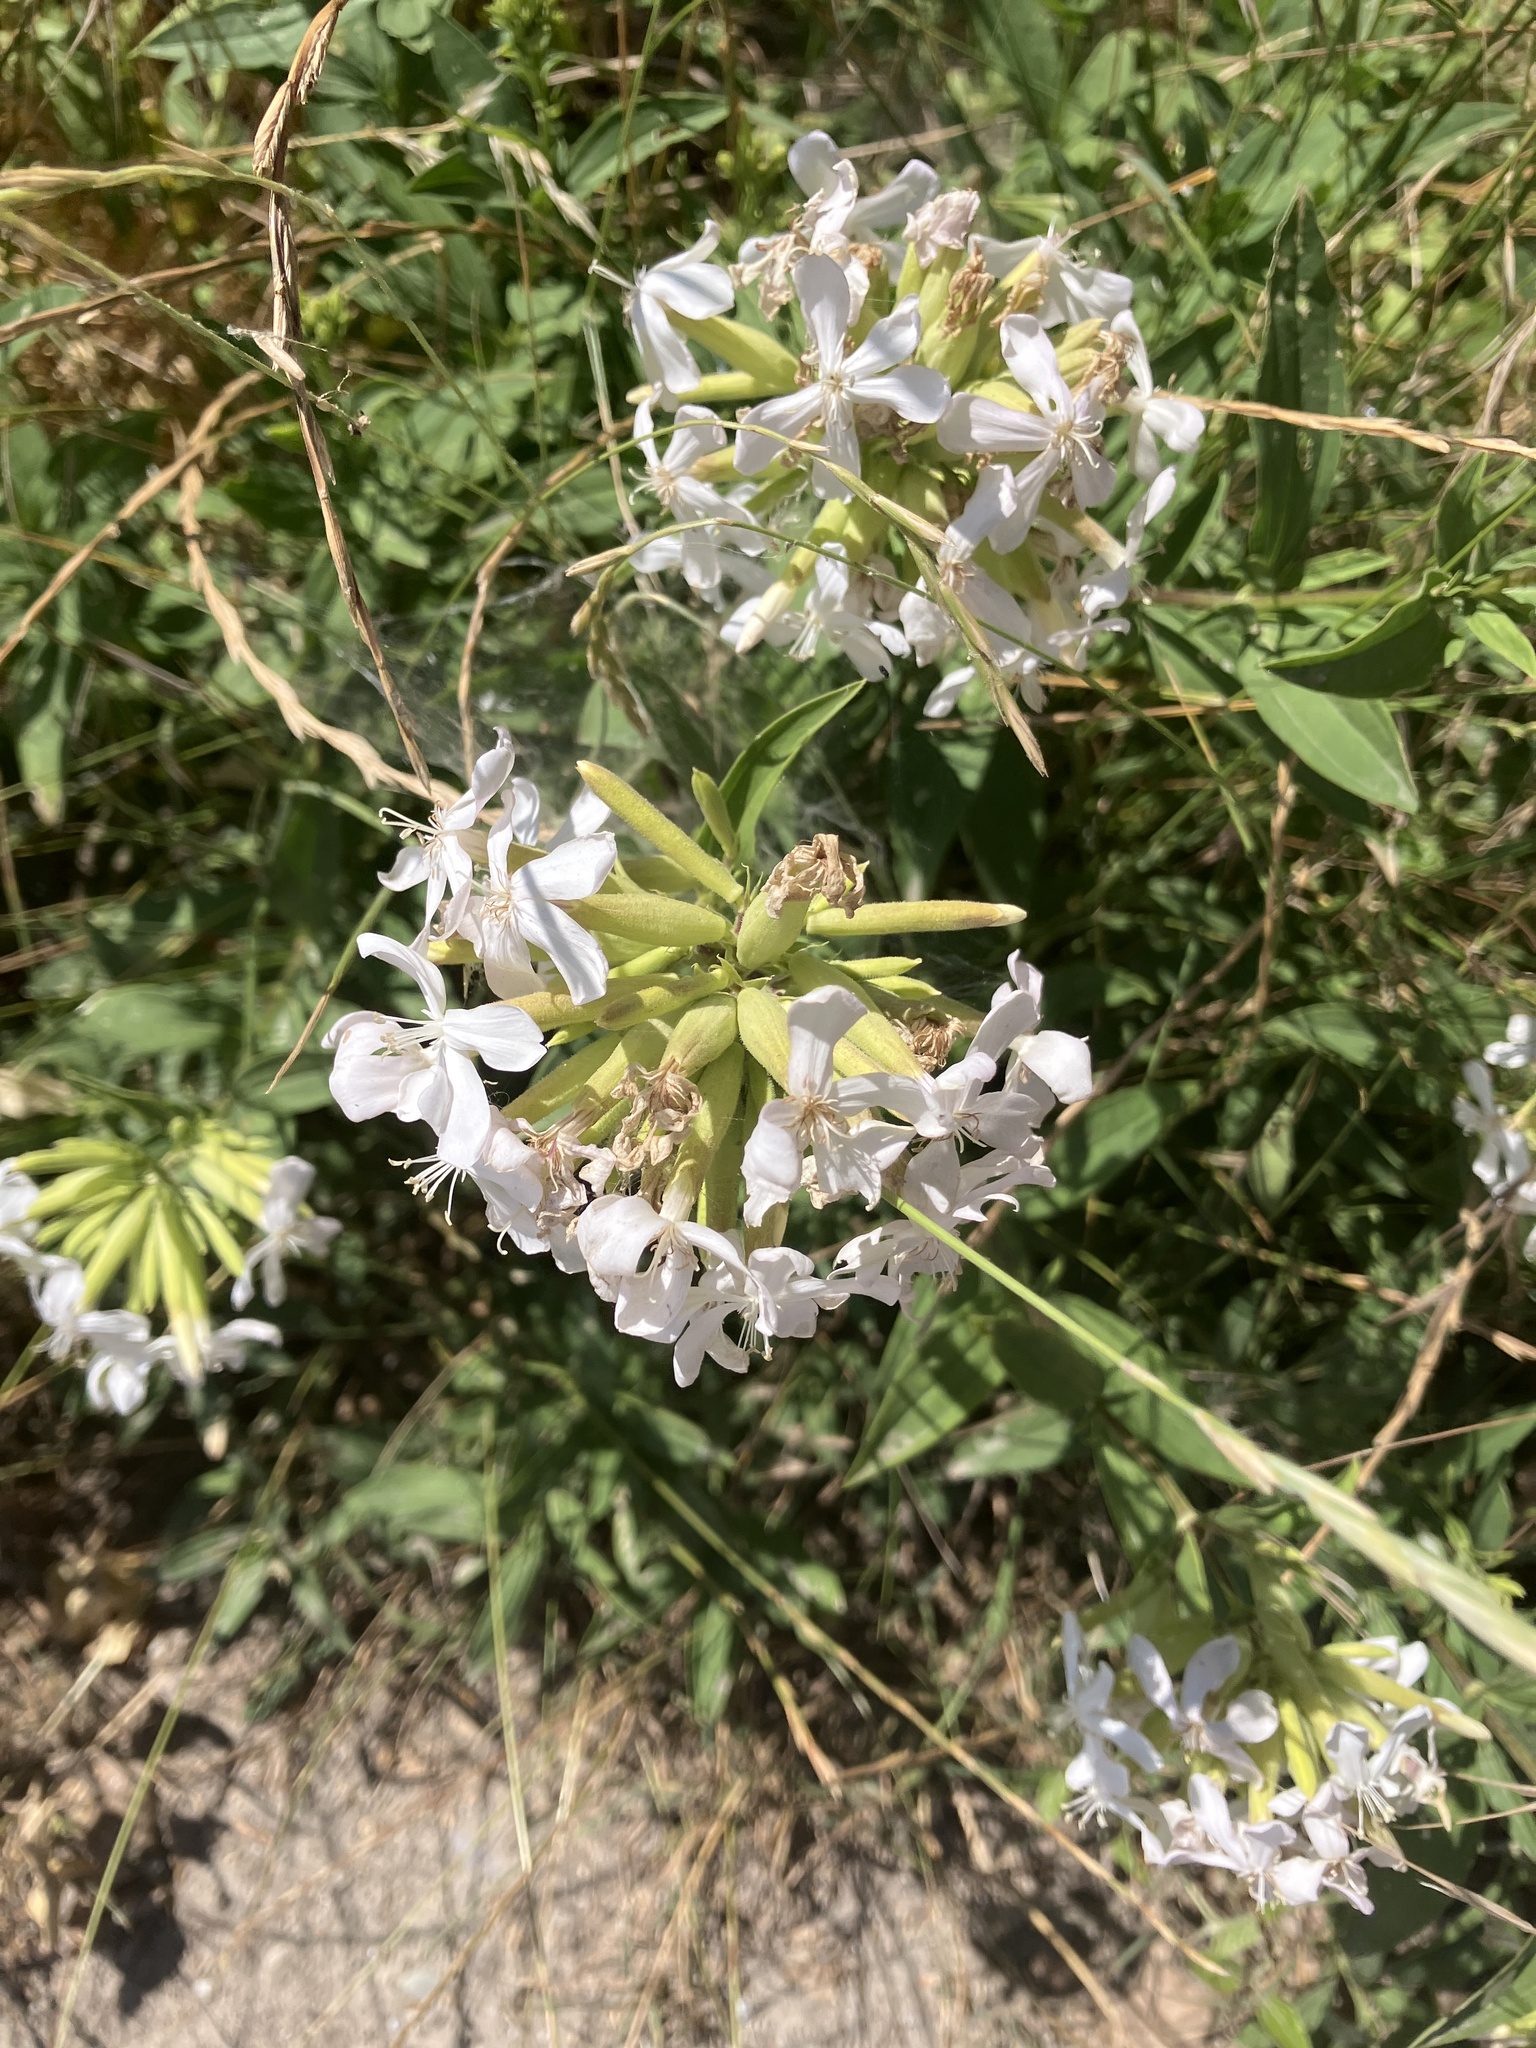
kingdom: Plantae
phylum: Tracheophyta
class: Magnoliopsida
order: Caryophyllales
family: Caryophyllaceae
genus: Saponaria
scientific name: Saponaria officinalis
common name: Soapwort
